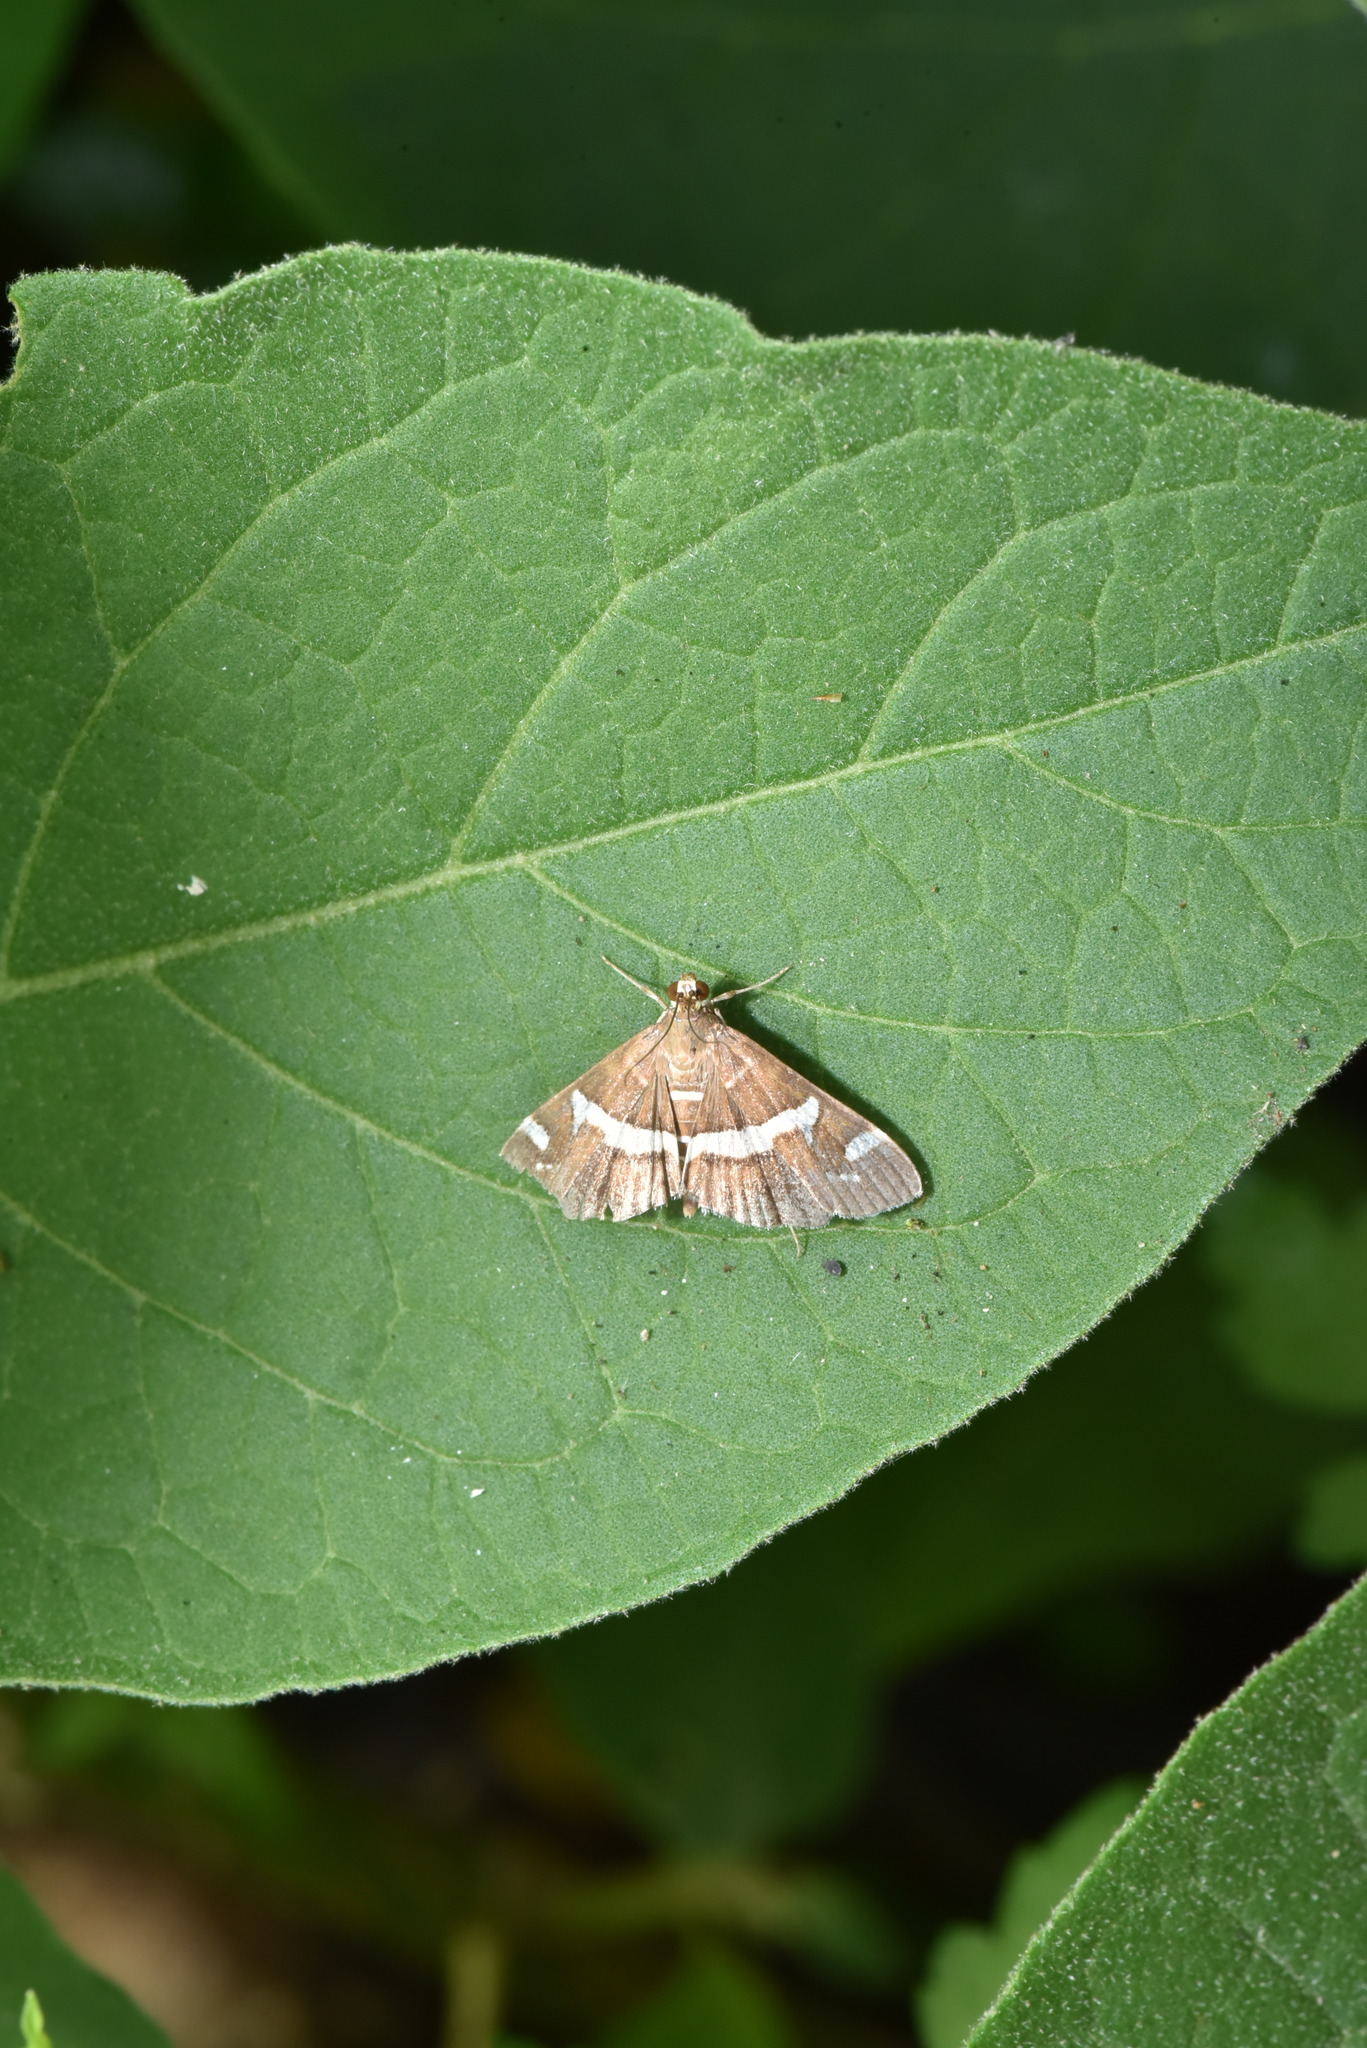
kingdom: Animalia
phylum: Arthropoda
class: Insecta
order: Lepidoptera
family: Crambidae
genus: Spoladea
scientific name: Spoladea recurvalis
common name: Beet webworm moth
